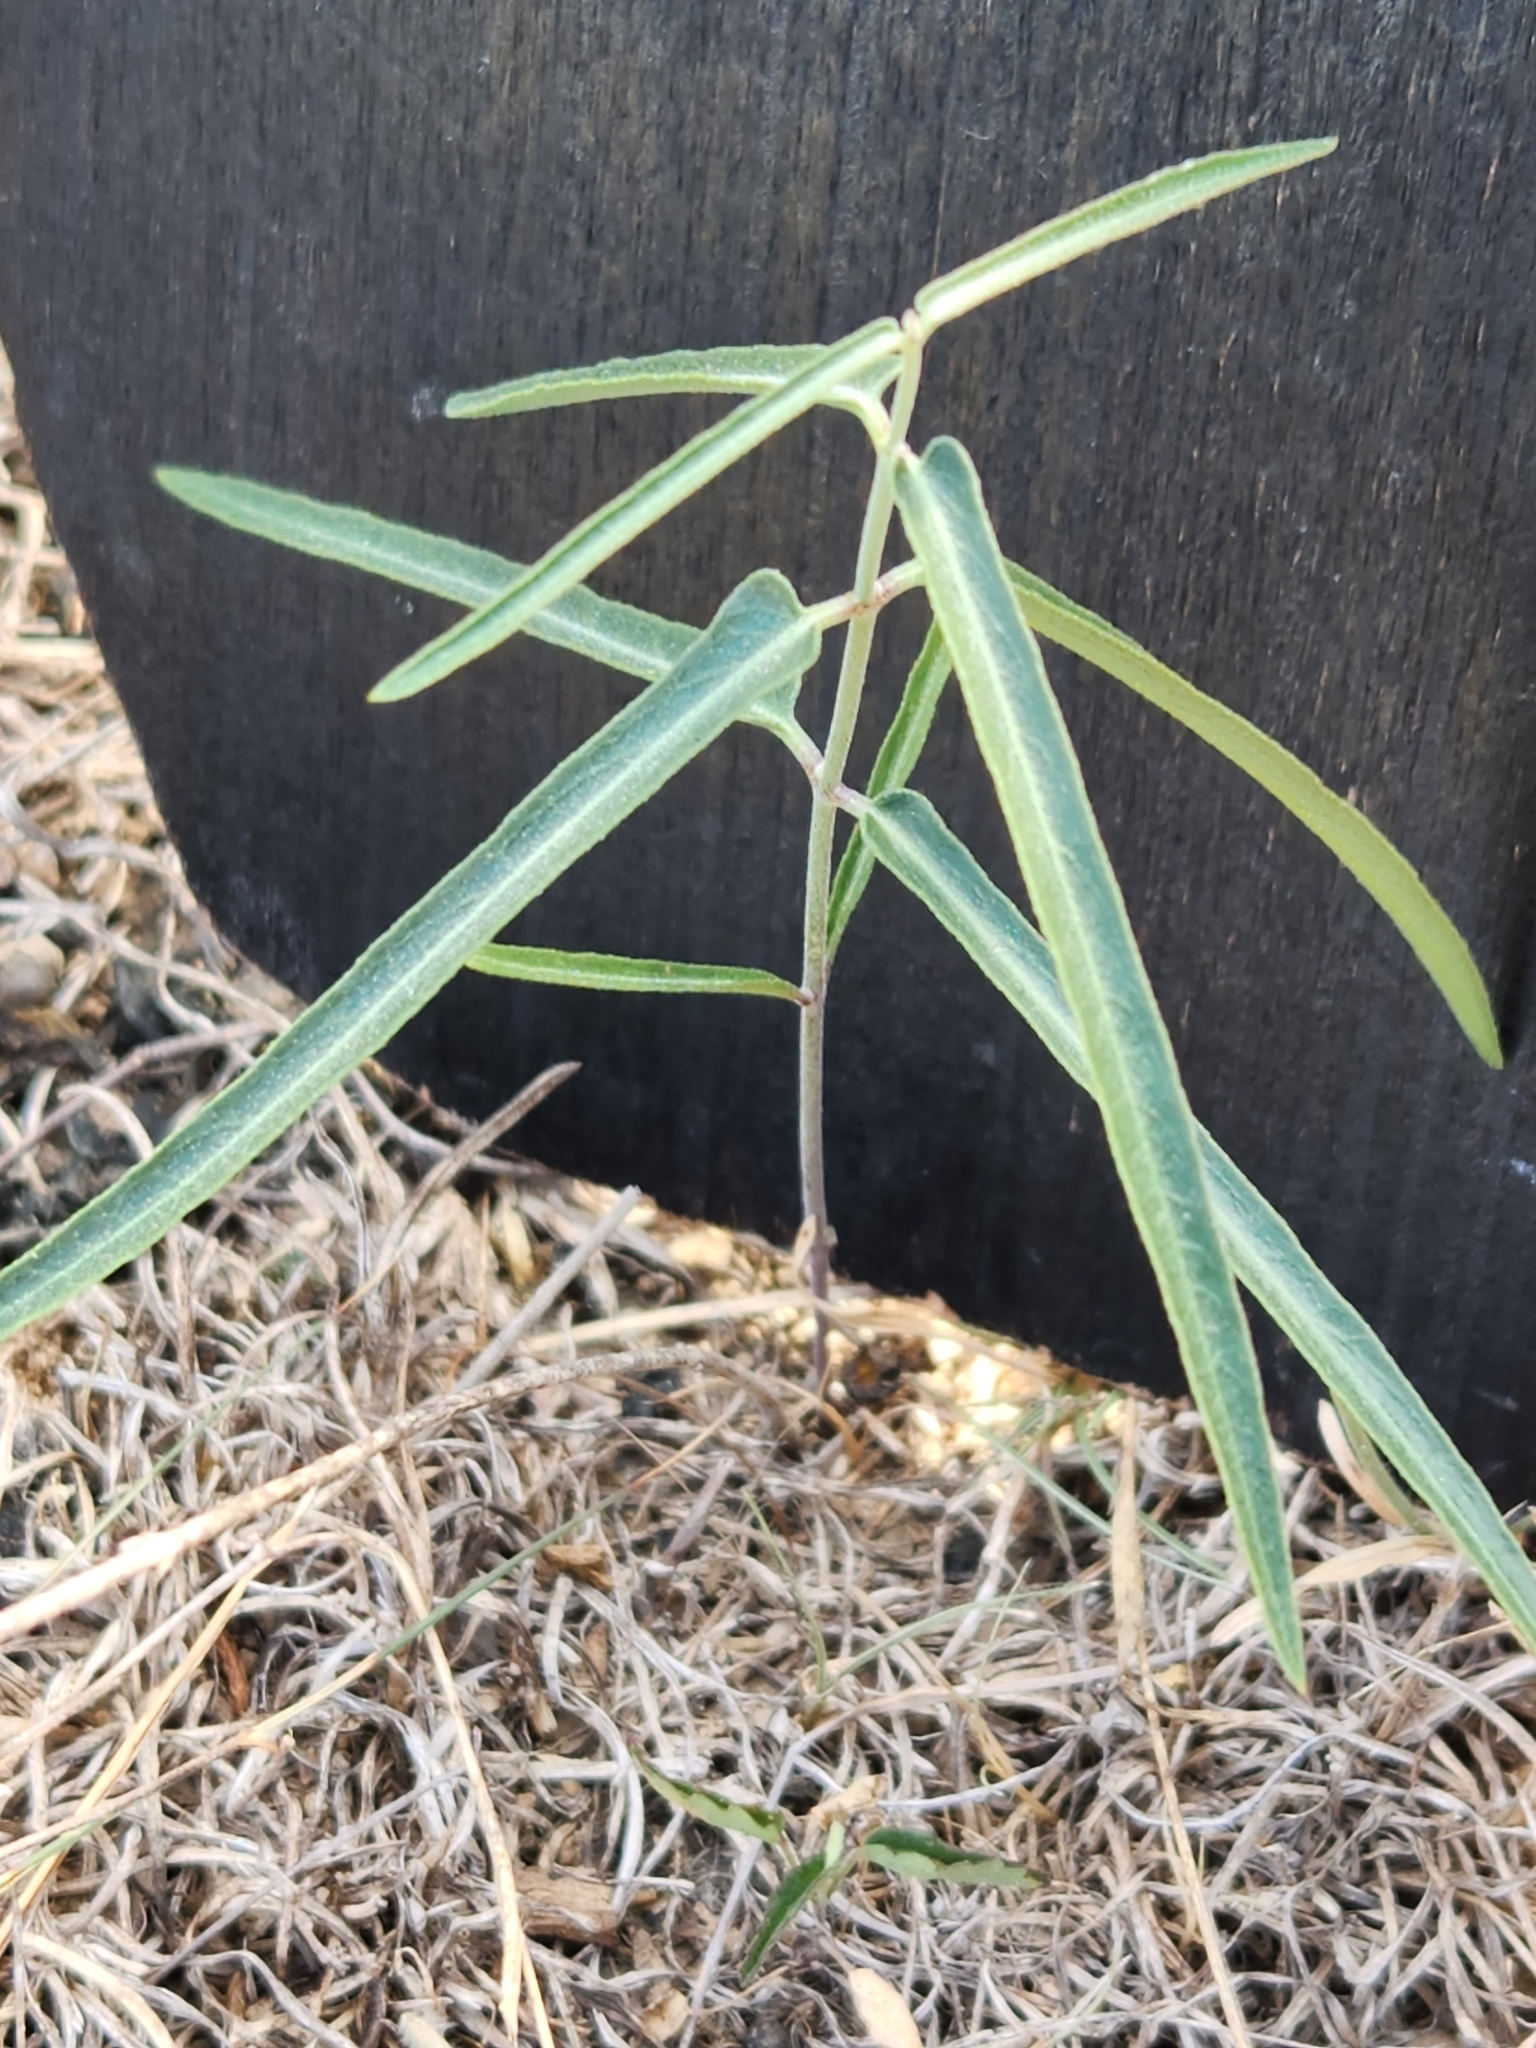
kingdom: Plantae
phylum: Tracheophyta
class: Magnoliopsida
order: Gentianales
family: Apocynaceae
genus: Funastrum
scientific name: Funastrum crispum
